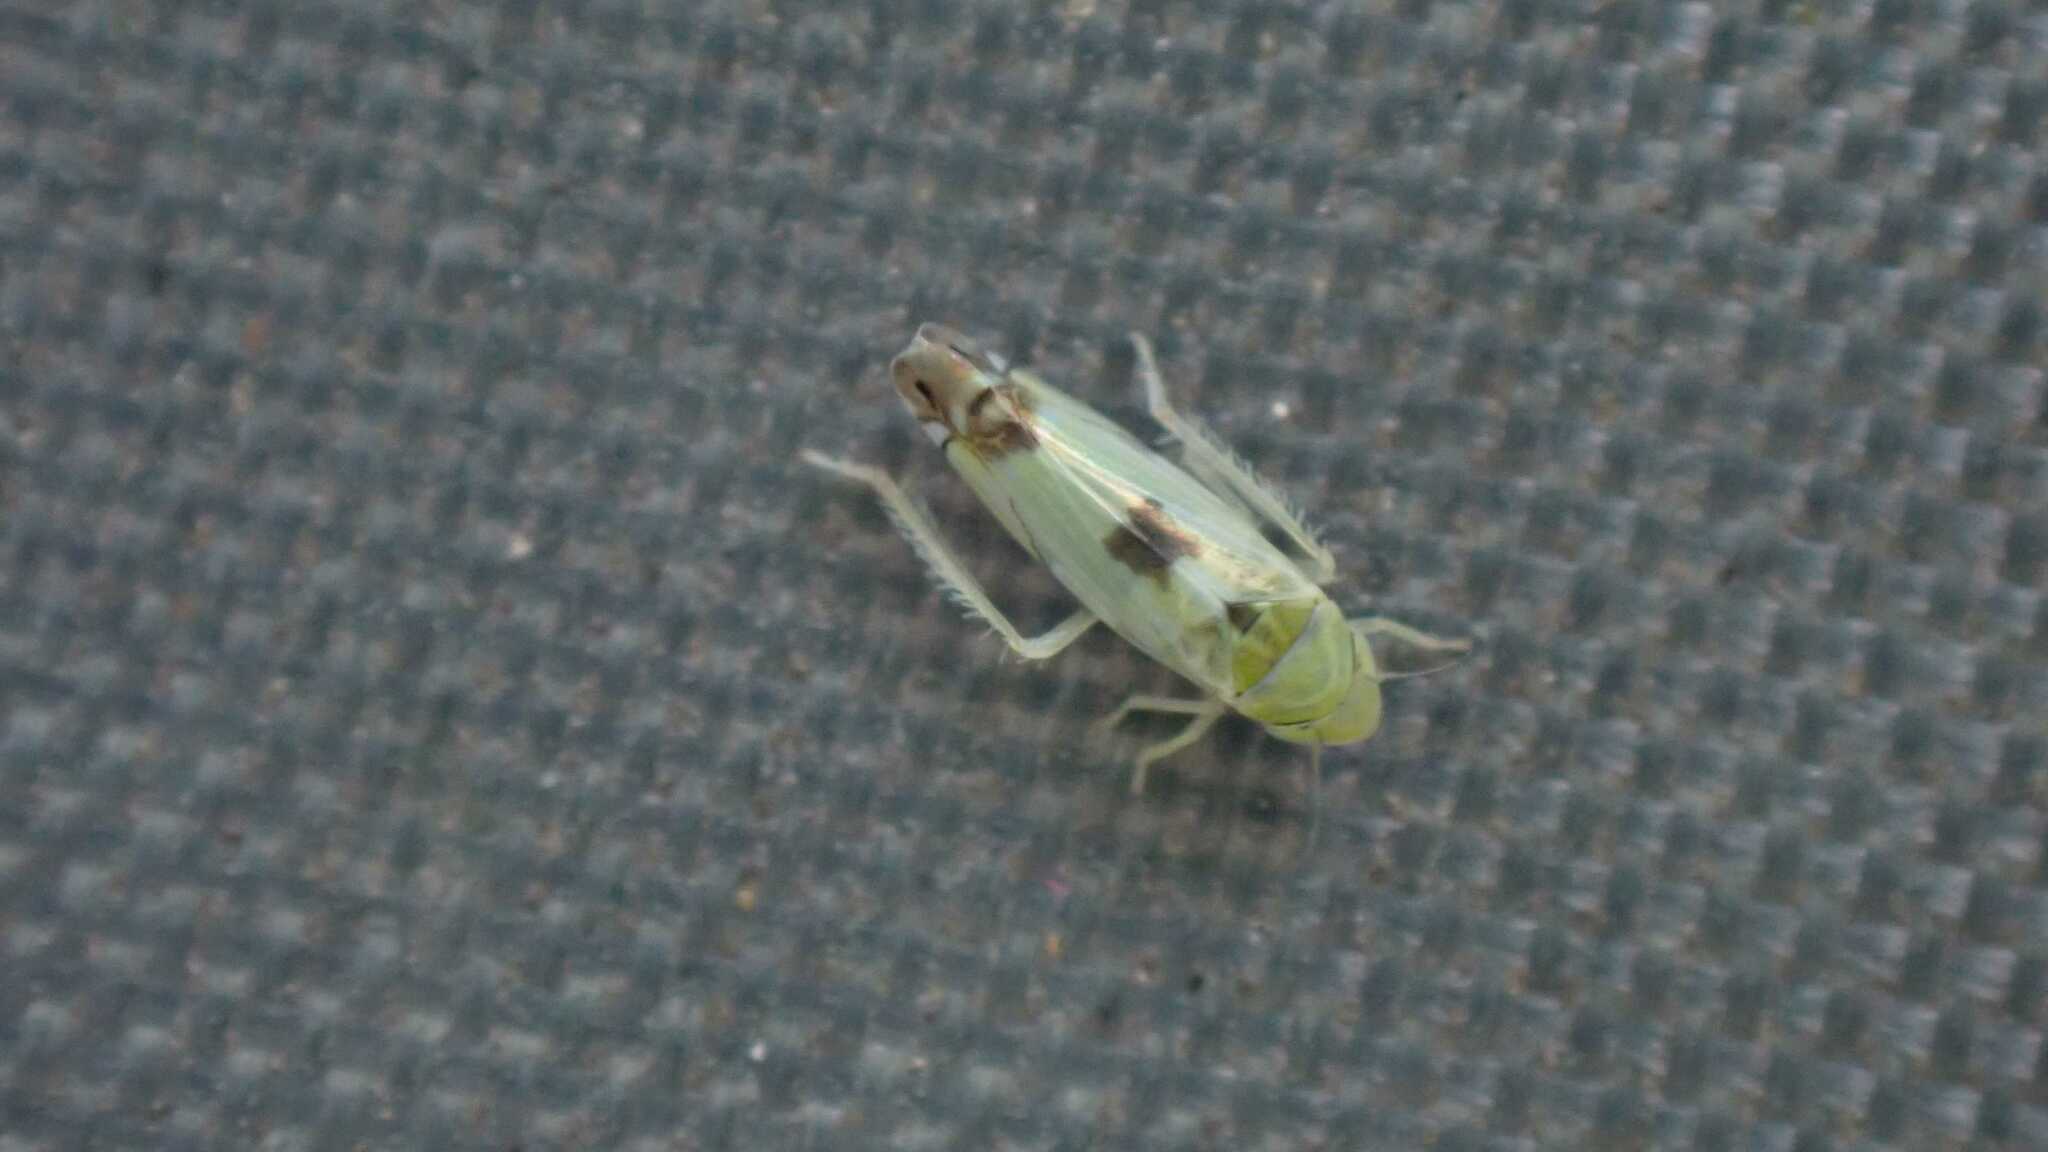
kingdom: Animalia
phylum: Arthropoda
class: Insecta
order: Hemiptera
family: Cicadellidae
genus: Zyginella
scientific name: Zyginella pulchra
